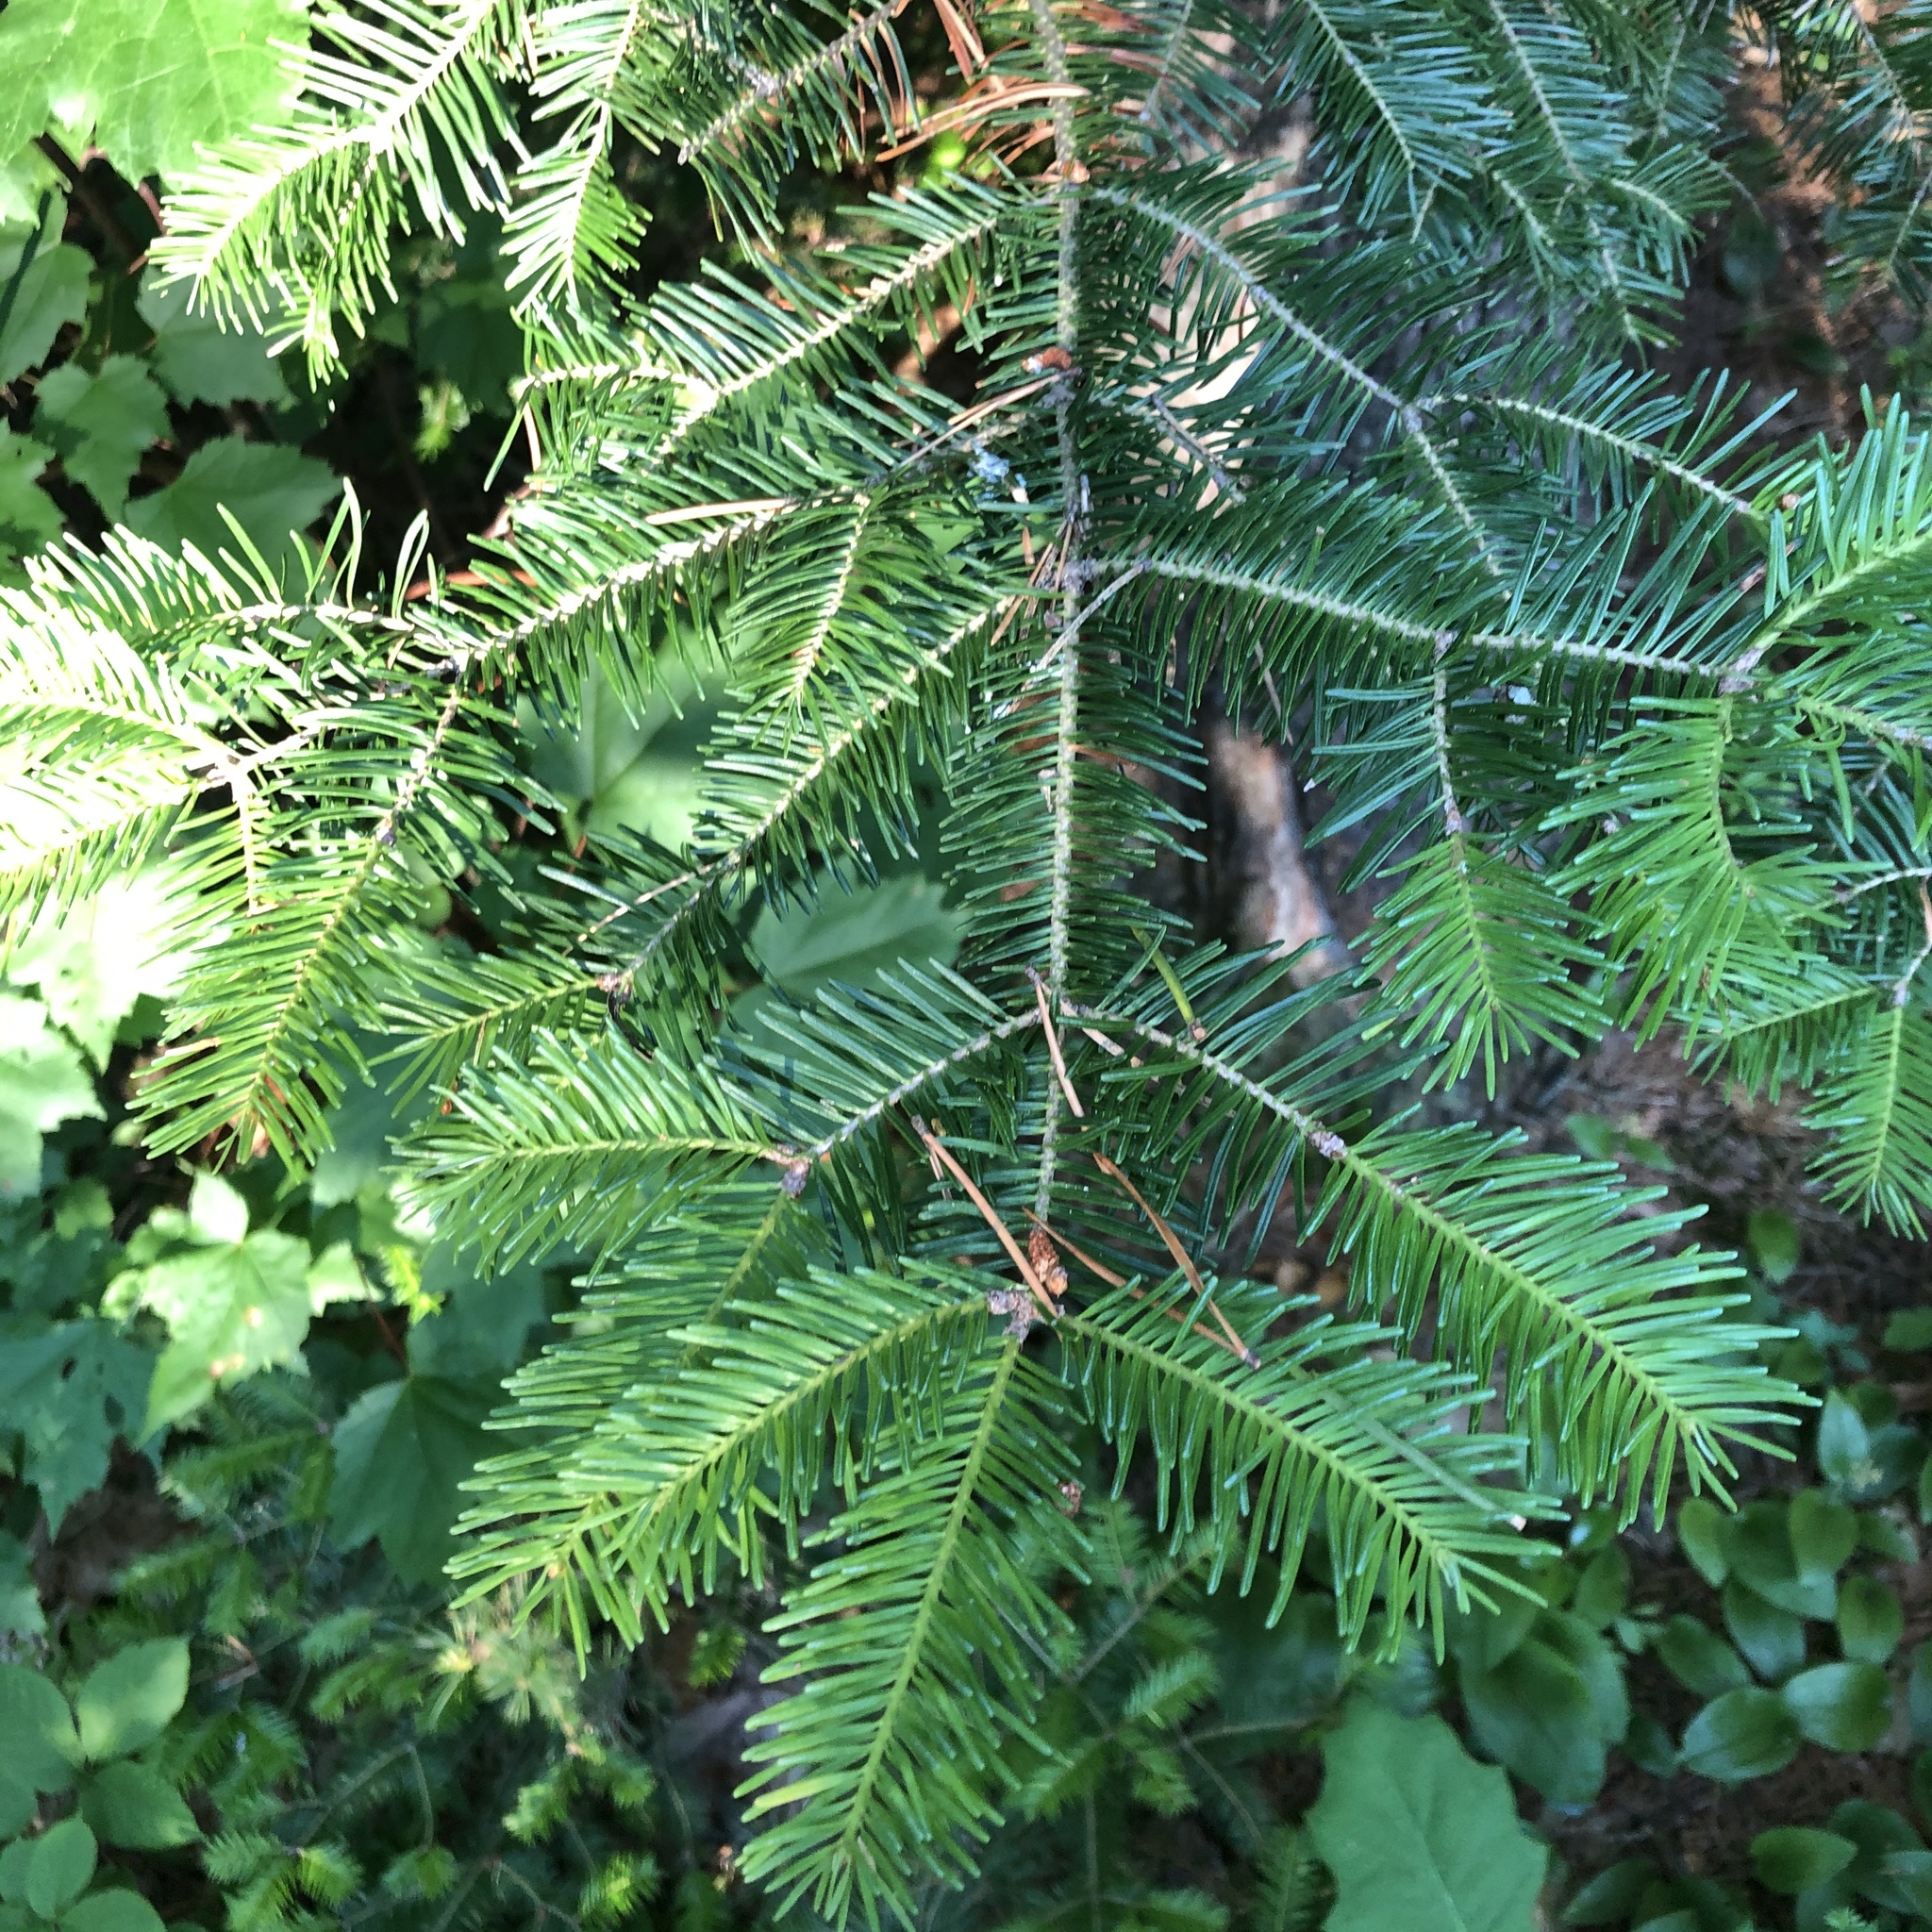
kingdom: Plantae
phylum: Tracheophyta
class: Pinopsida
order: Pinales
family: Pinaceae
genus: Abies
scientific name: Abies balsamea
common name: Balsam fir
